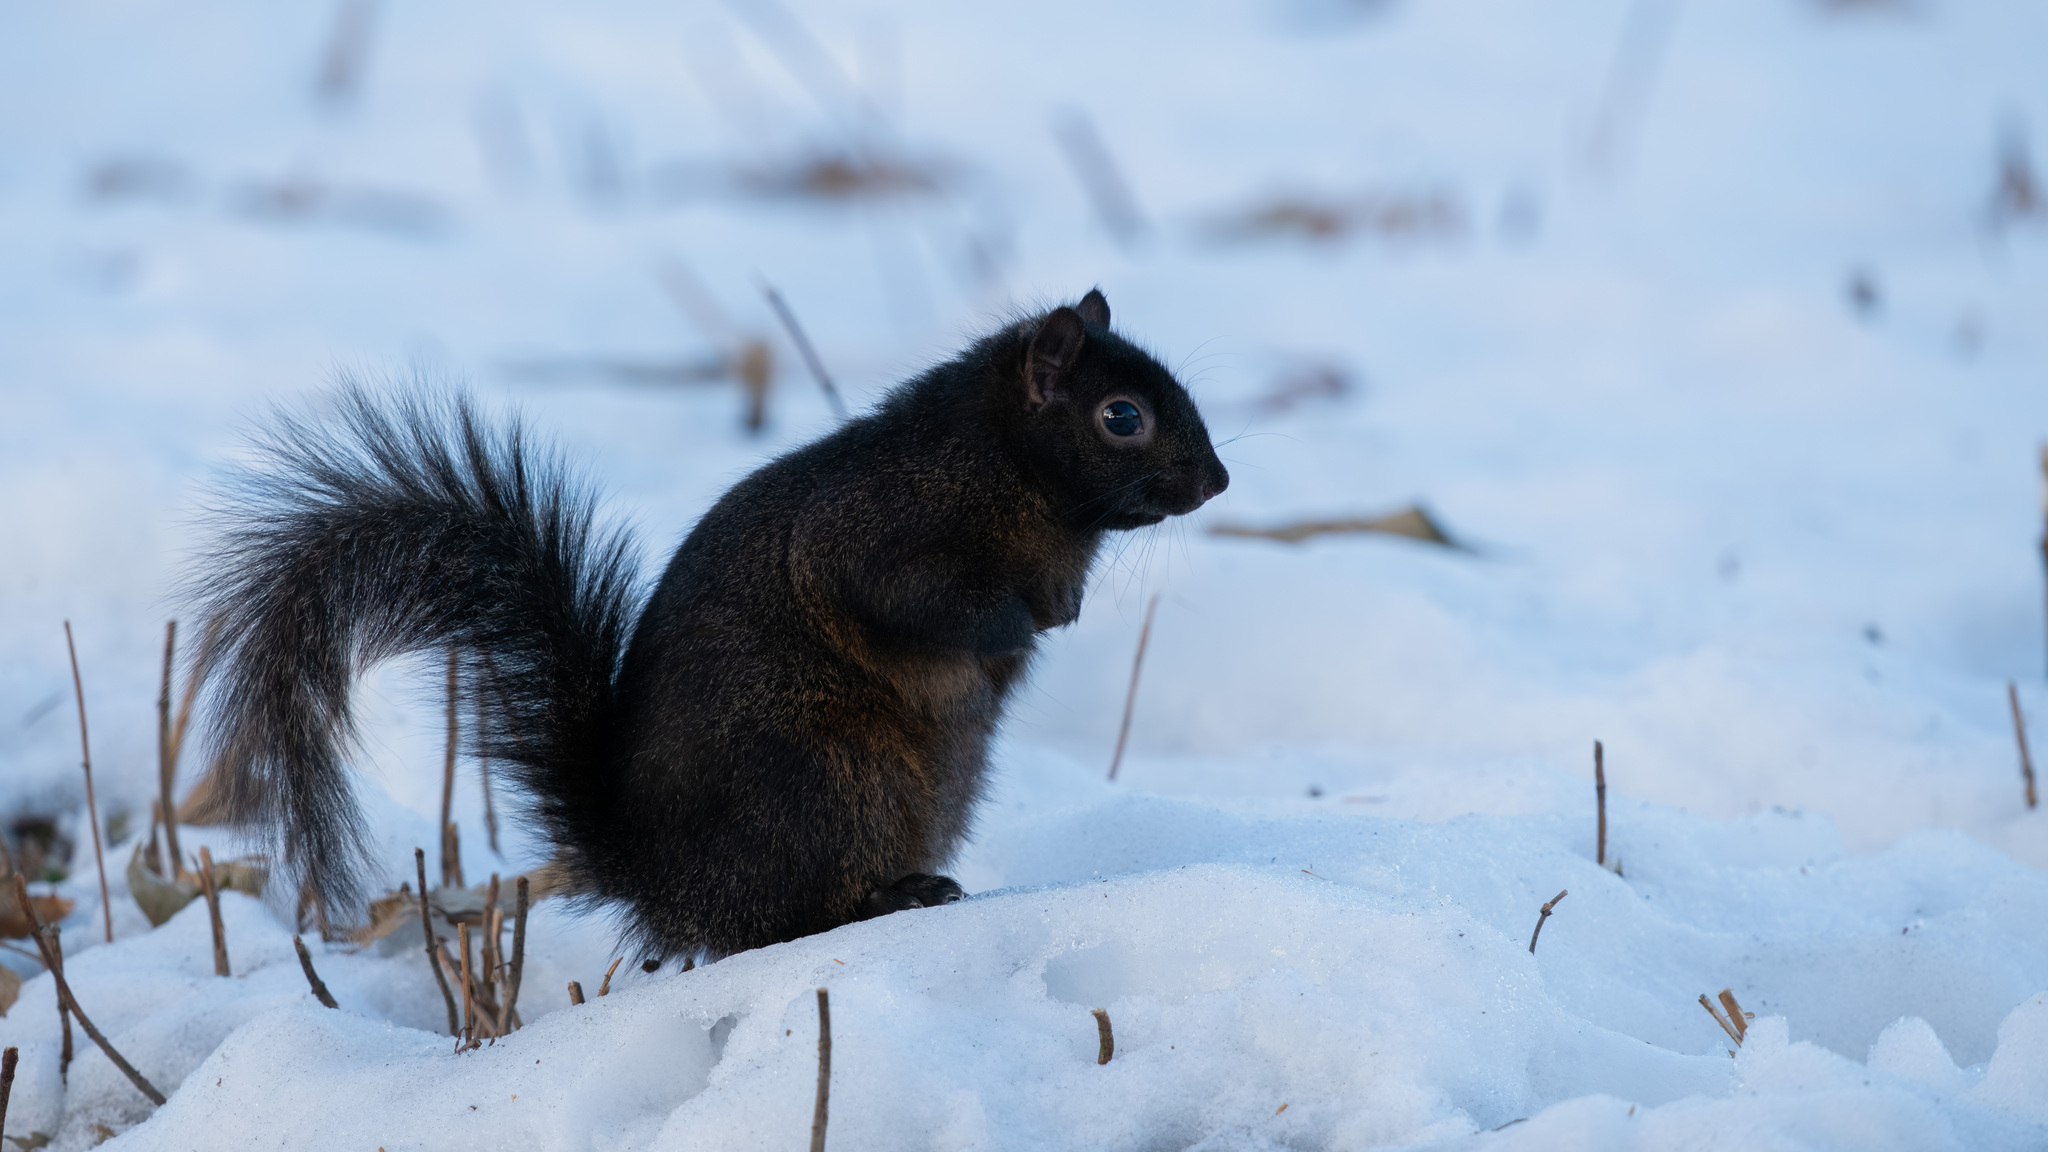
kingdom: Animalia
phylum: Chordata
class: Mammalia
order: Rodentia
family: Sciuridae
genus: Sciurus
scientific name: Sciurus carolinensis
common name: Eastern gray squirrel
